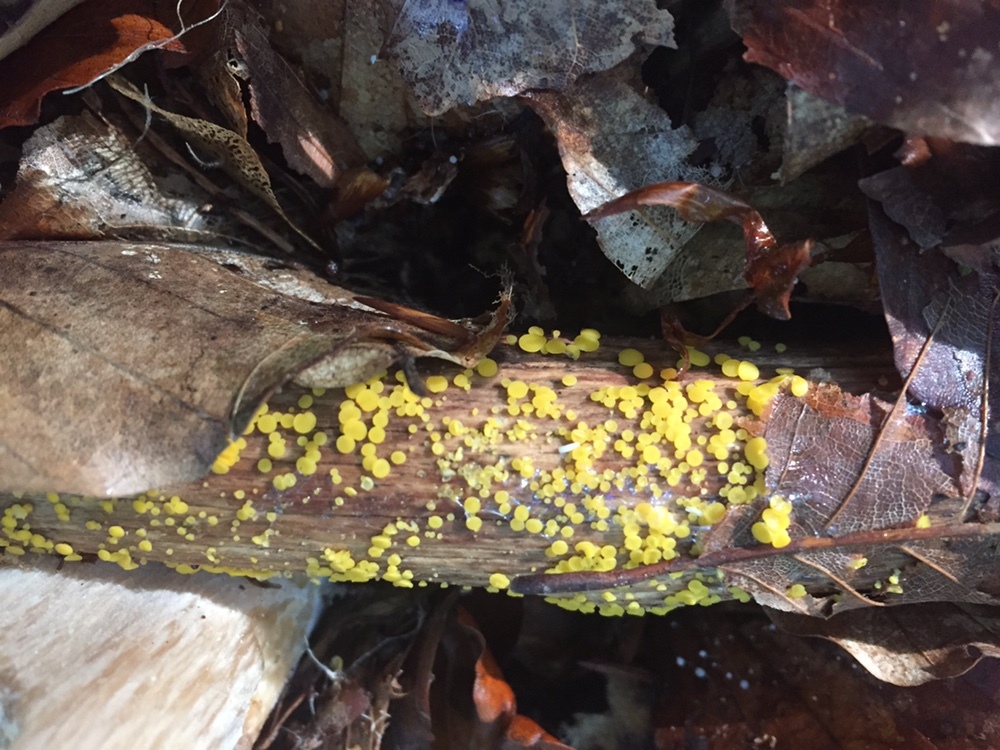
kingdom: Fungi
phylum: Ascomycota
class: Leotiomycetes
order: Helotiales
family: Pezizellaceae
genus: Calycina
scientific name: Calycina citrina
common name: Yellow fairy cups
